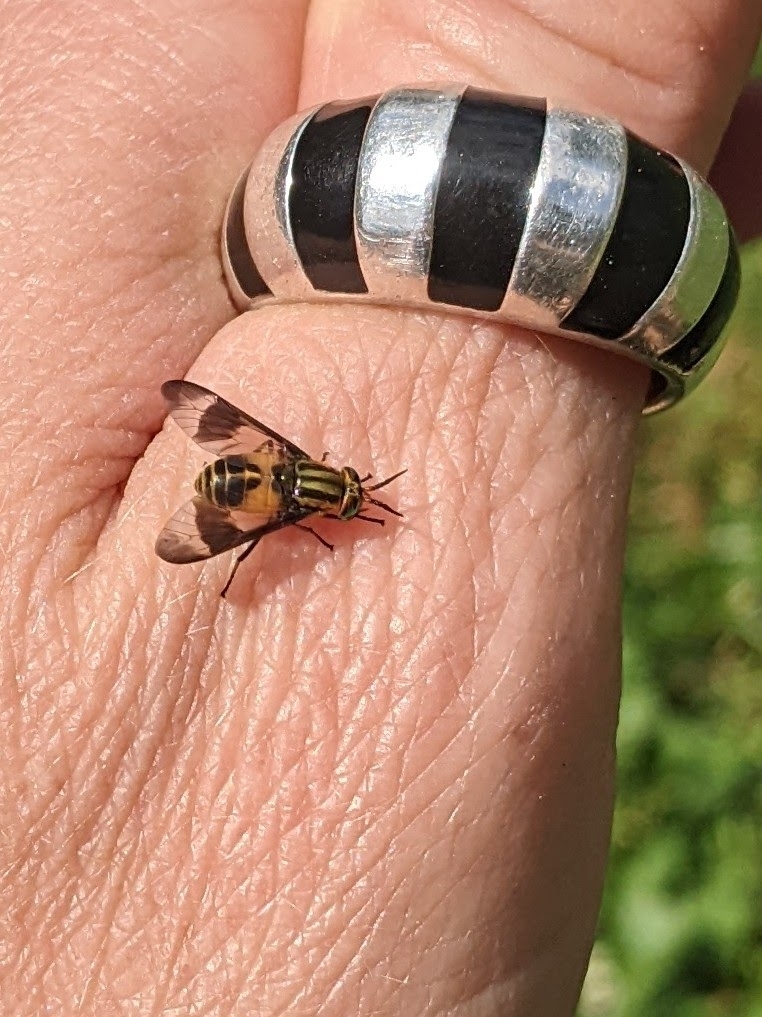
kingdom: Animalia
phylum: Arthropoda
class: Insecta
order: Diptera
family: Tabanidae
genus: Chrysops
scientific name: Chrysops geminatus
